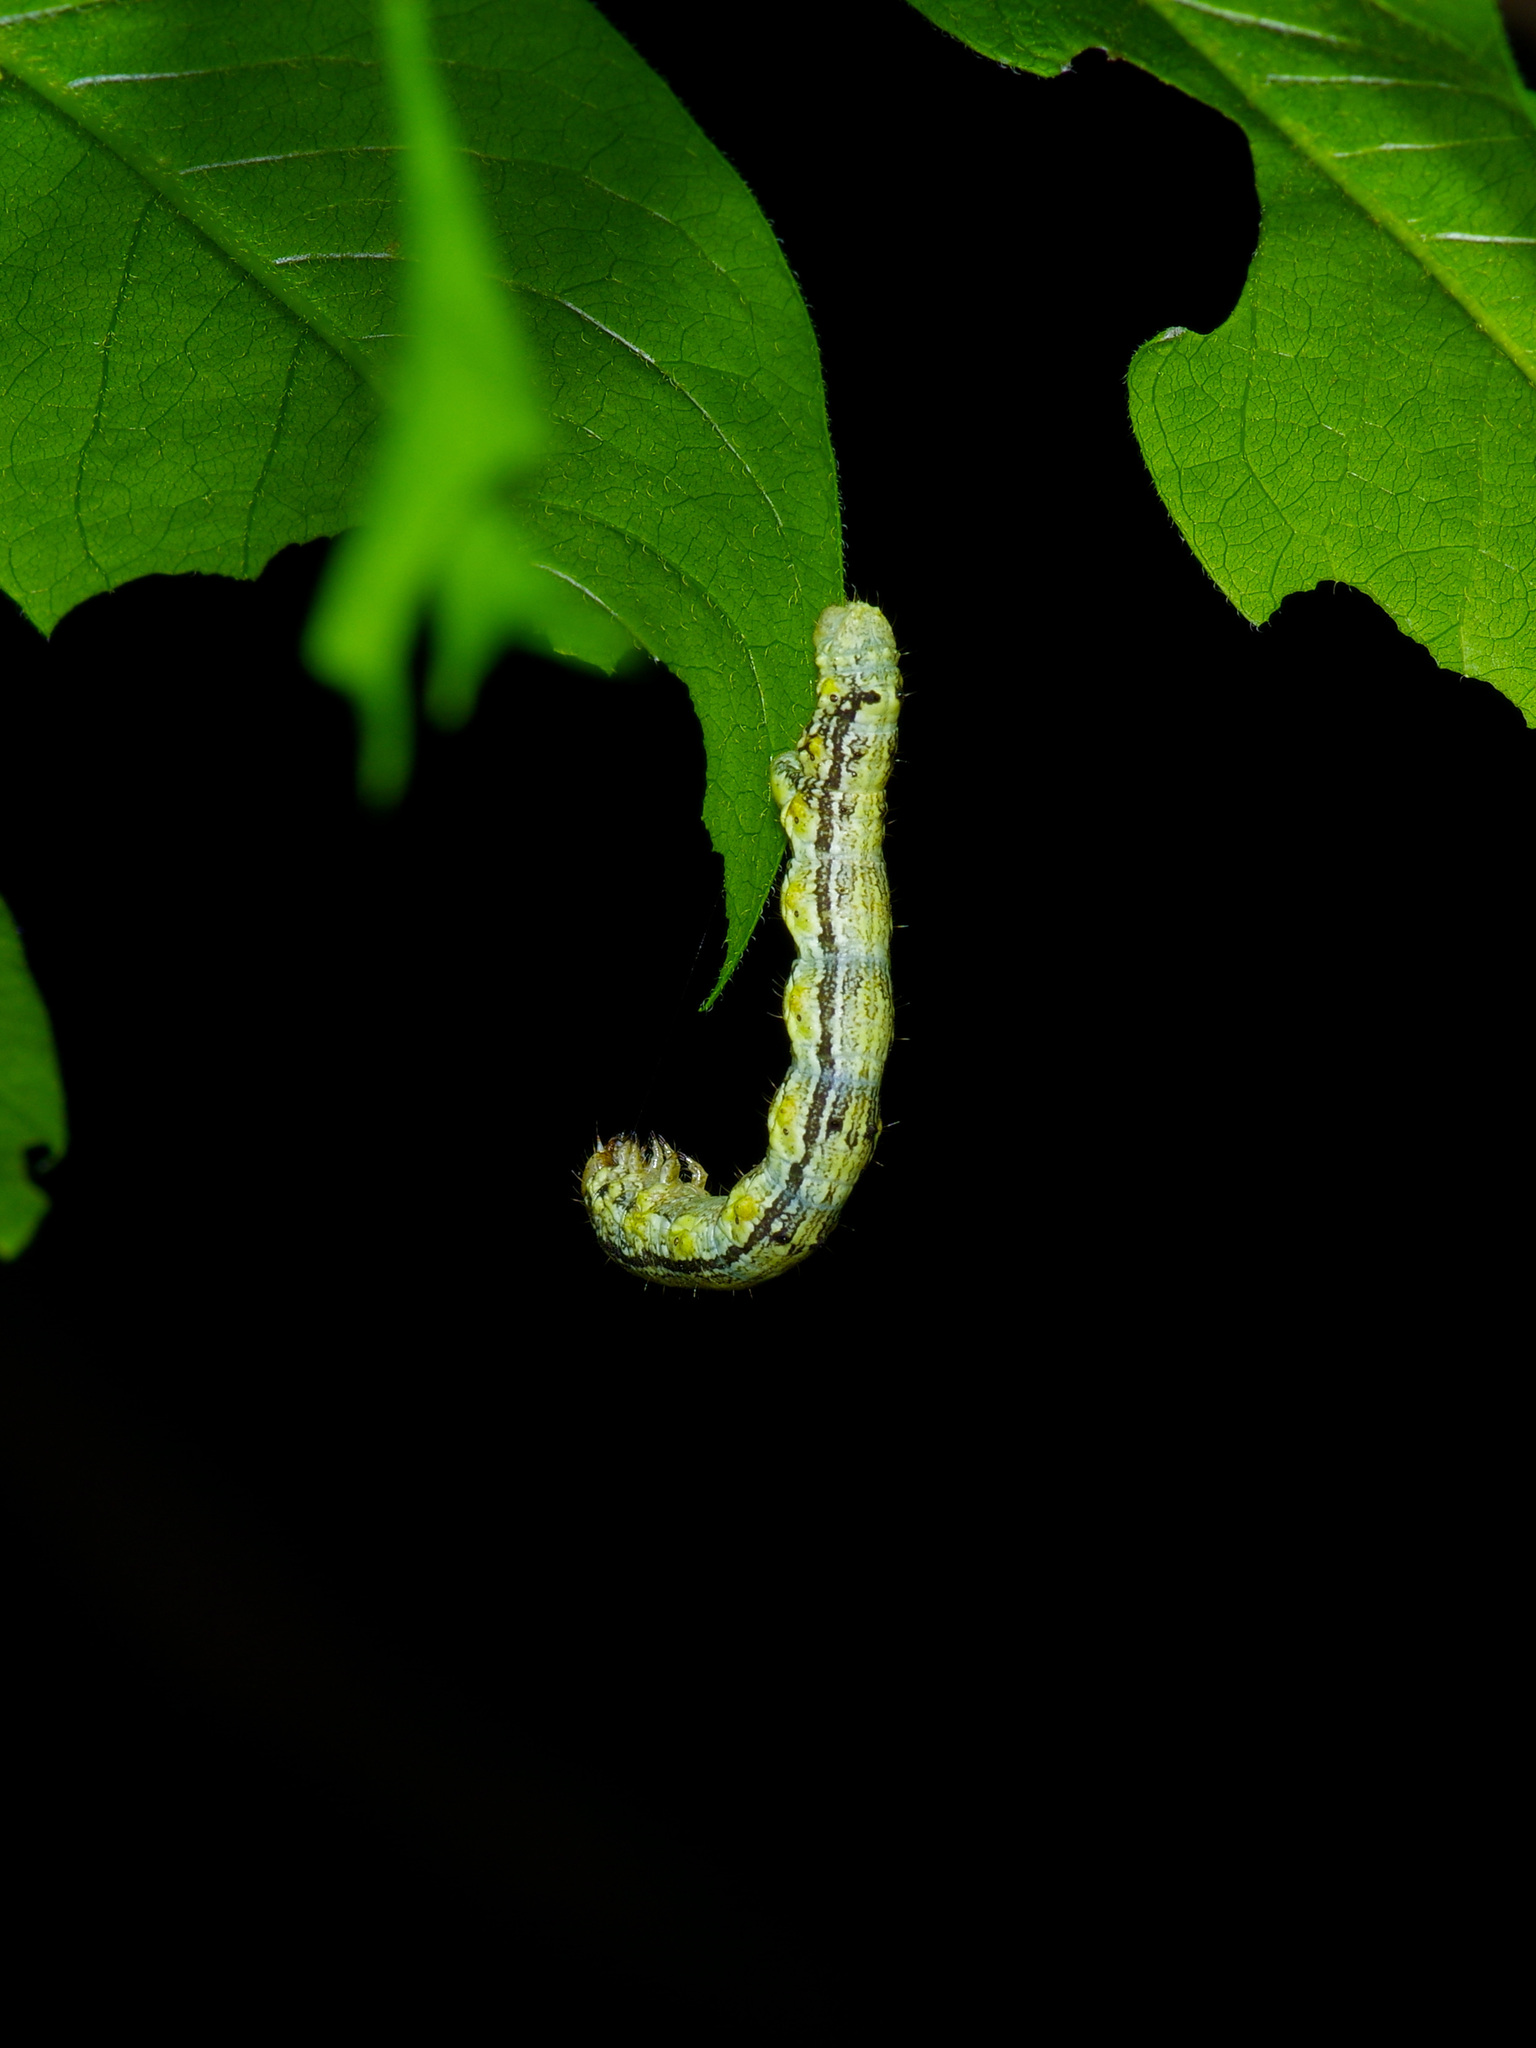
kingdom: Animalia
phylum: Arthropoda
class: Insecta
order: Lepidoptera
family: Geometridae
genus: Phigalia
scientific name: Phigalia strigataria
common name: Small phigalia
